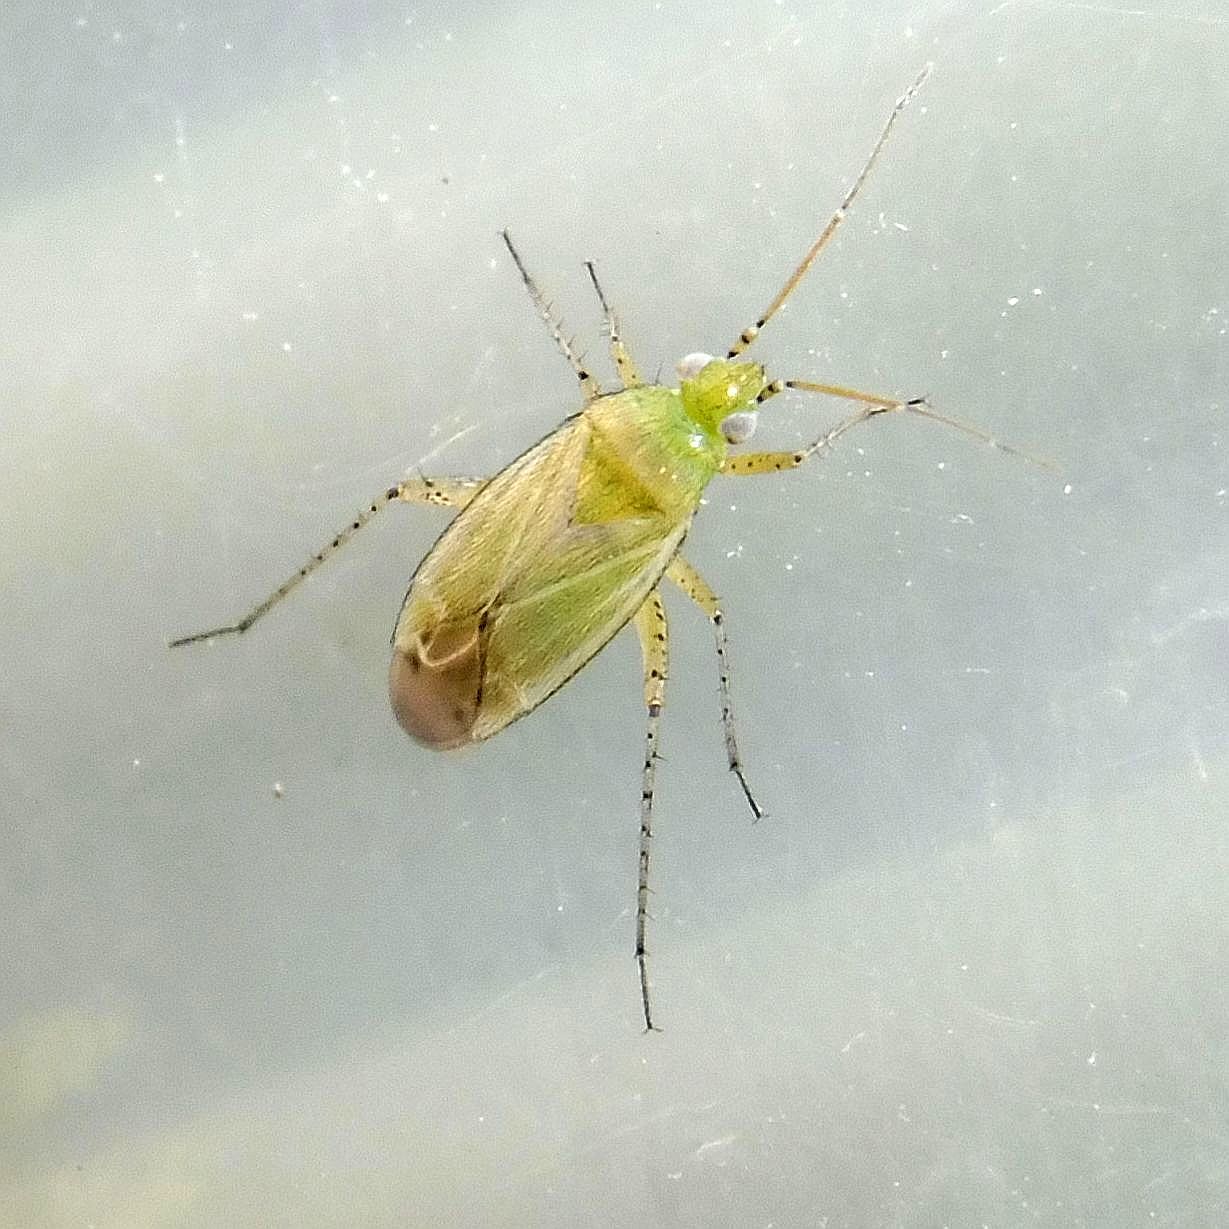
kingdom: Animalia
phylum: Arthropoda
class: Insecta
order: Hemiptera
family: Miridae
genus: Plagiognathus
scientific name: Plagiognathus chrysanthemi
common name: Plant bug
